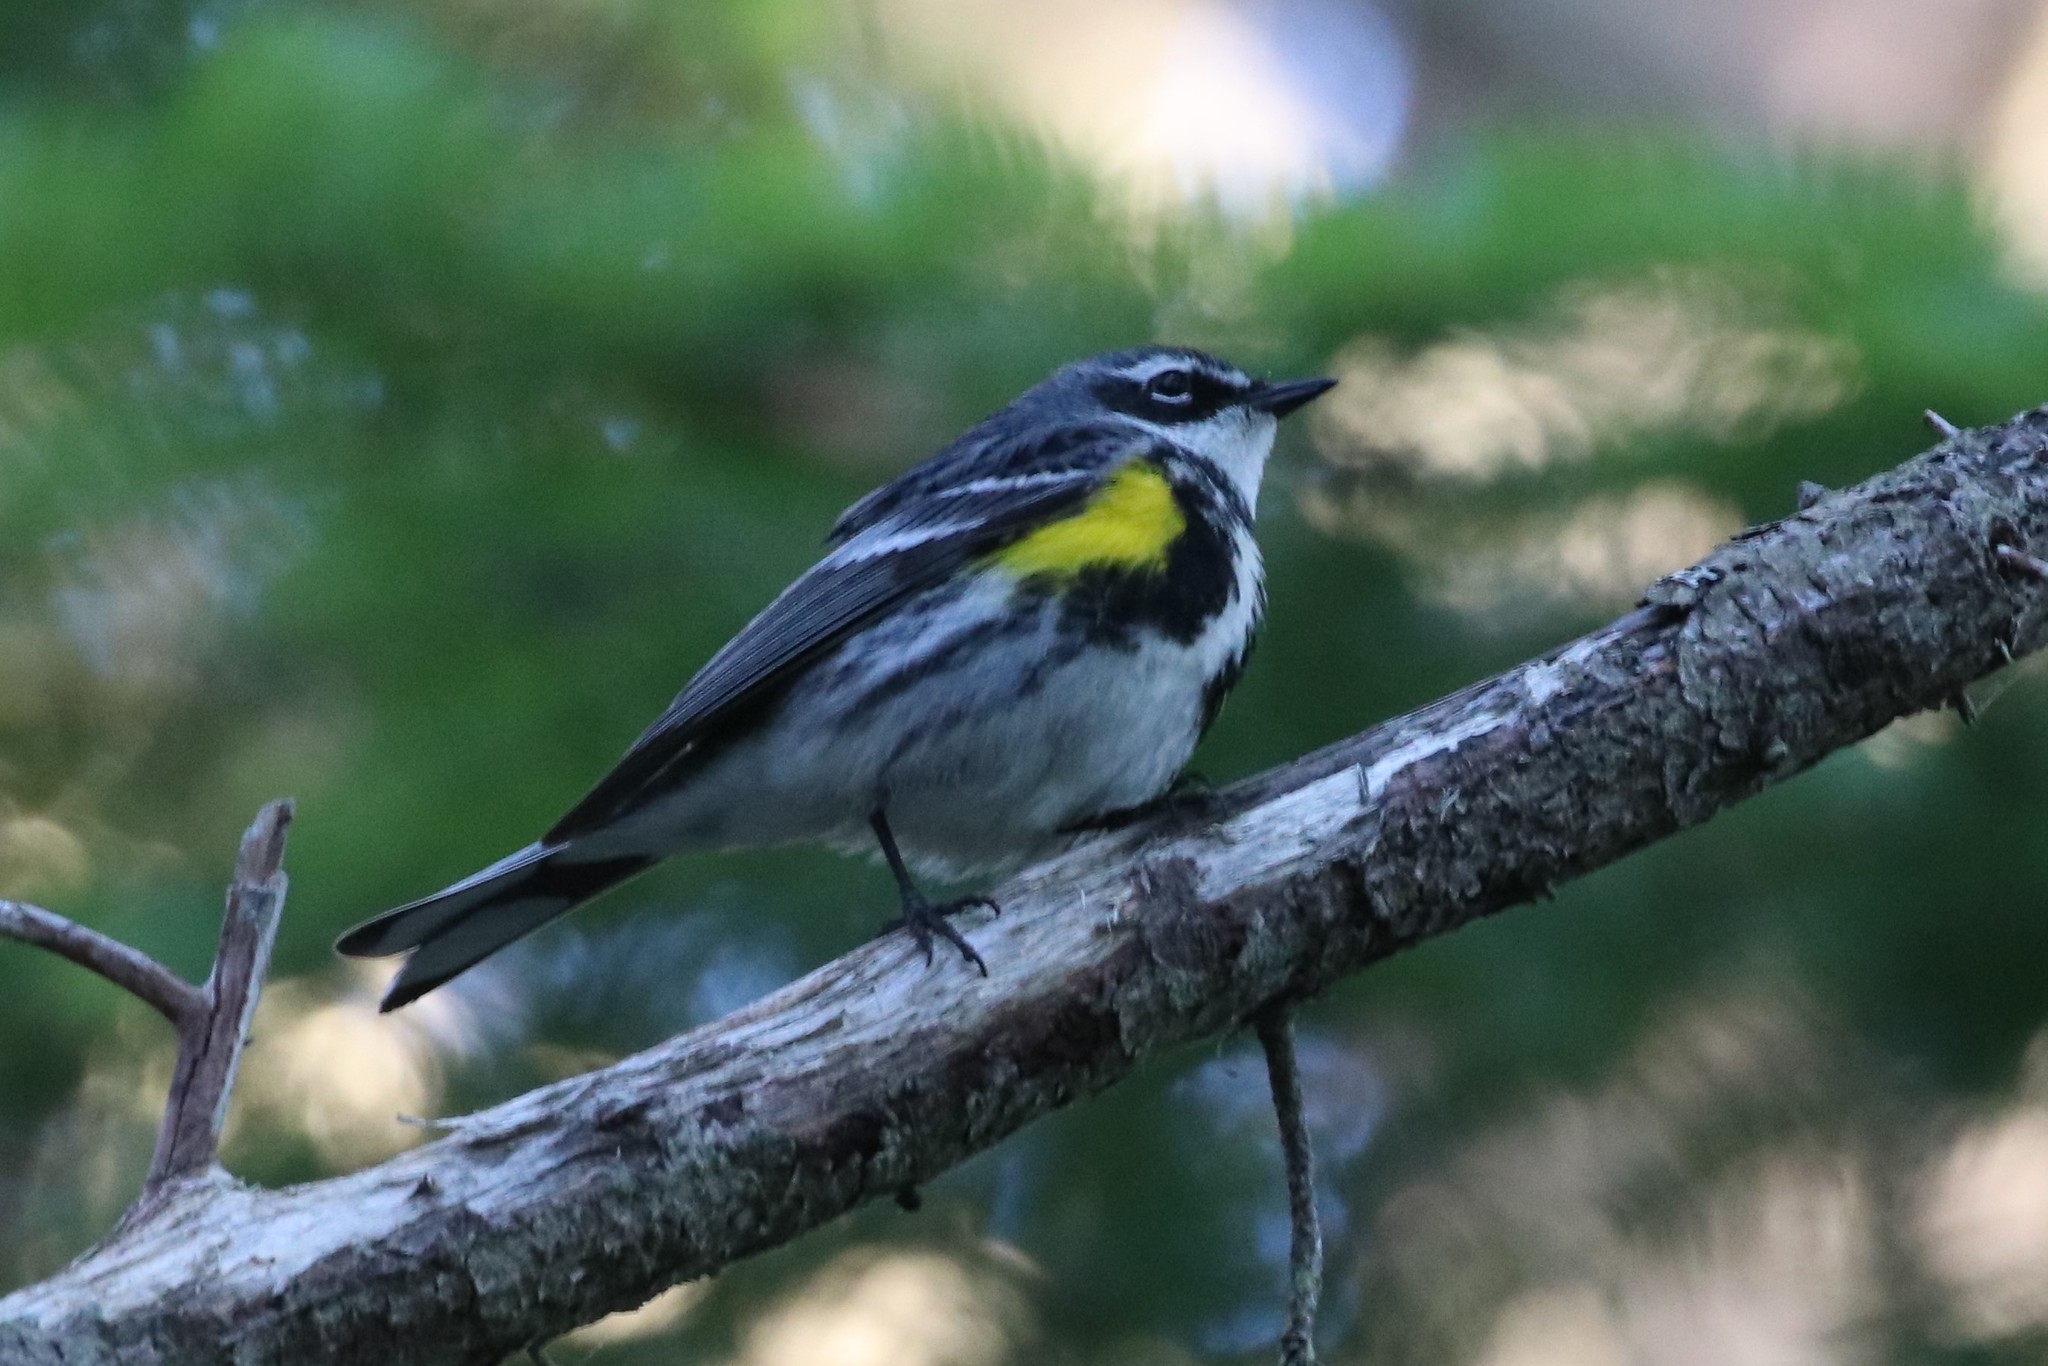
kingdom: Animalia
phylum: Chordata
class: Aves
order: Passeriformes
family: Parulidae
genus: Setophaga
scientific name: Setophaga coronata
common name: Myrtle warbler
